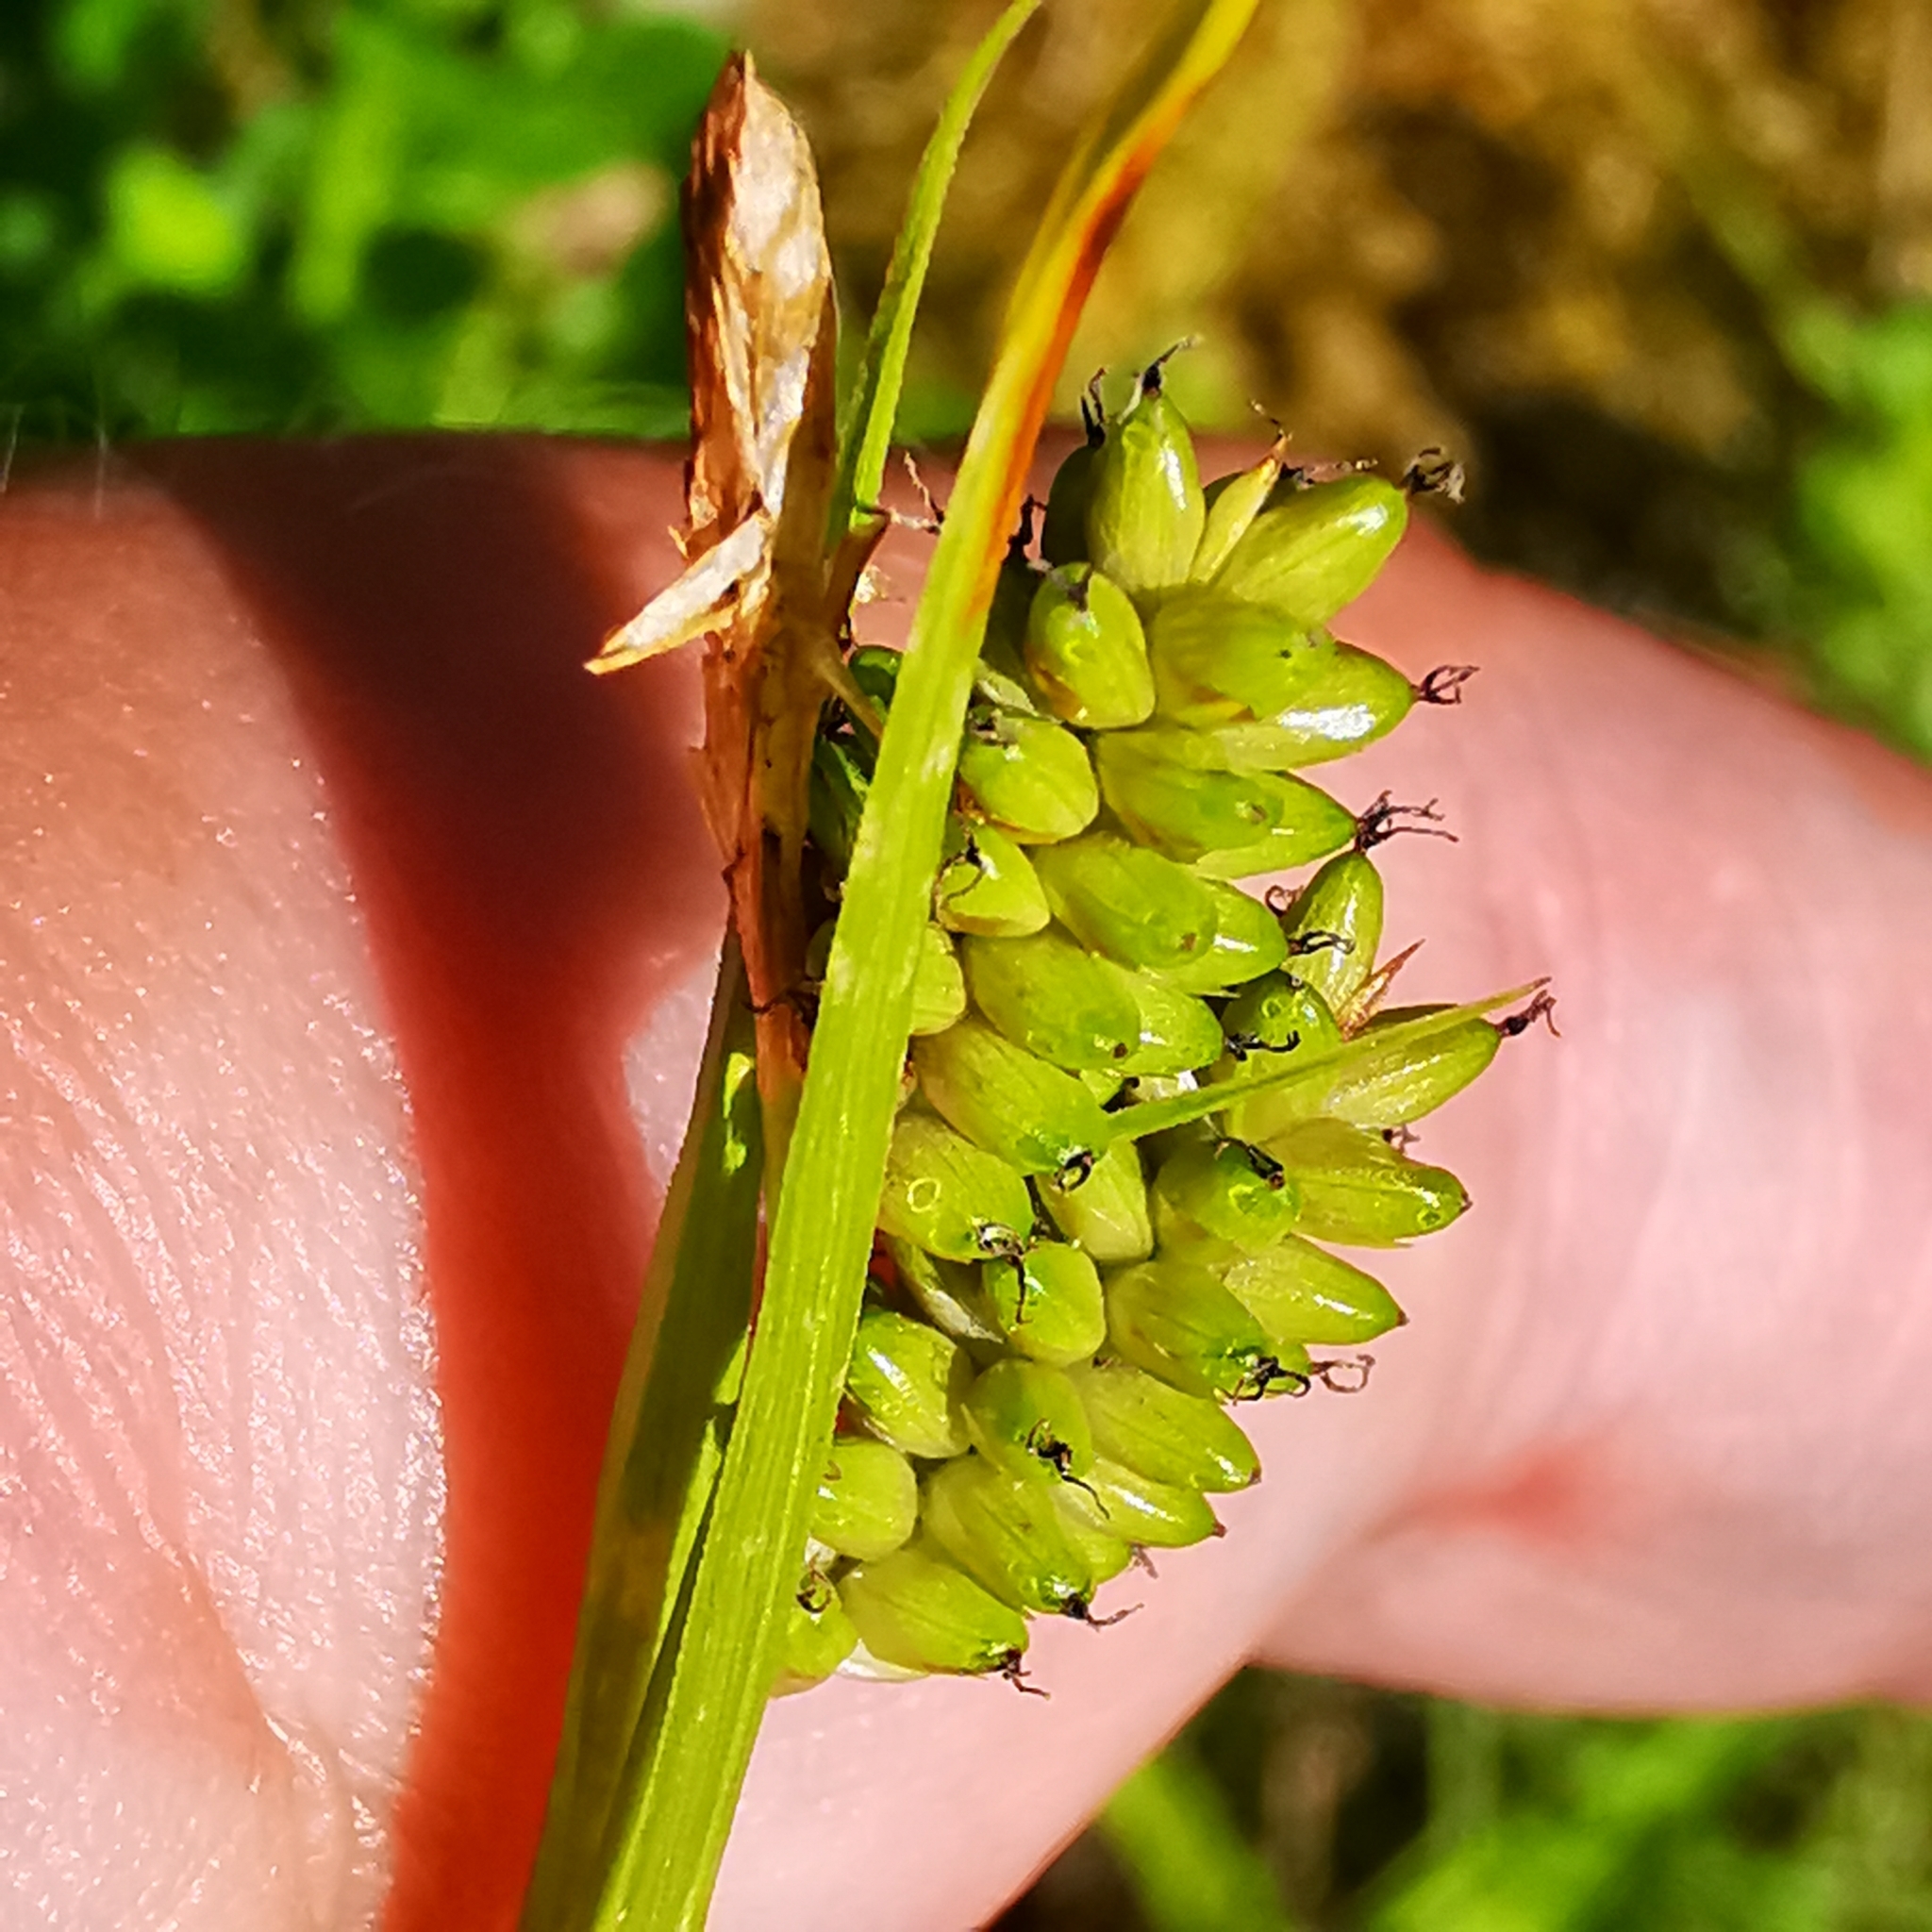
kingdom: Plantae
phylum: Tracheophyta
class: Liliopsida
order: Poales
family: Cyperaceae
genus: Carex
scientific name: Carex pallescens
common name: Pale sedge
